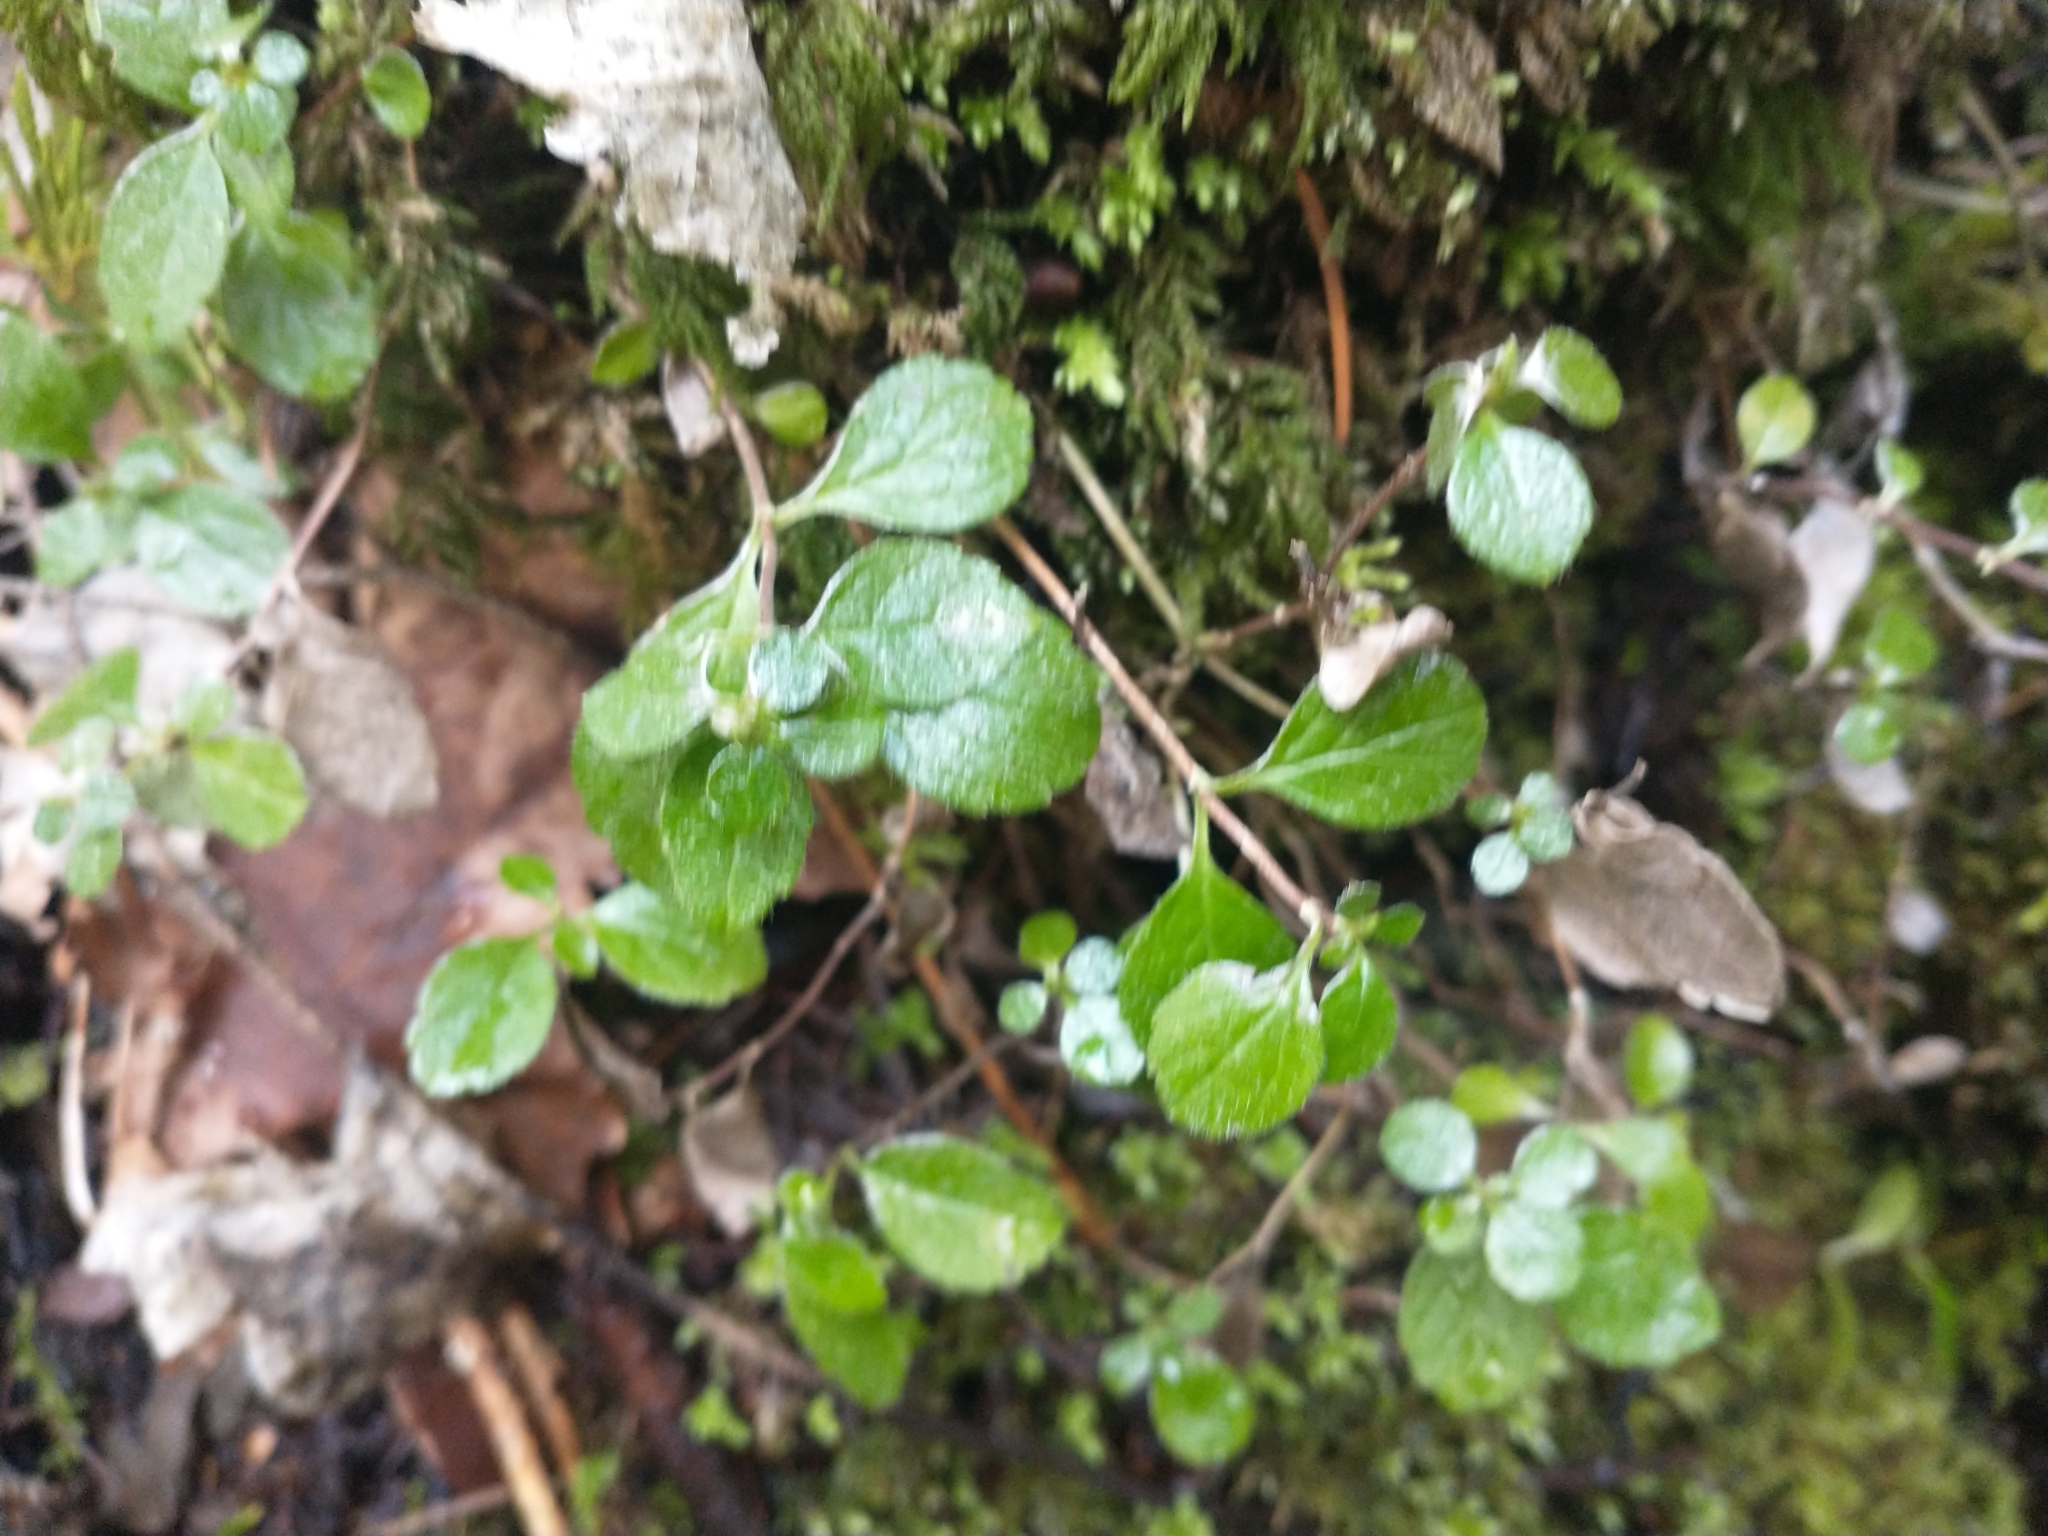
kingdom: Plantae
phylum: Tracheophyta
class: Magnoliopsida
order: Dipsacales
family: Caprifoliaceae
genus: Linnaea
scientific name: Linnaea borealis
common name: Twinflower
